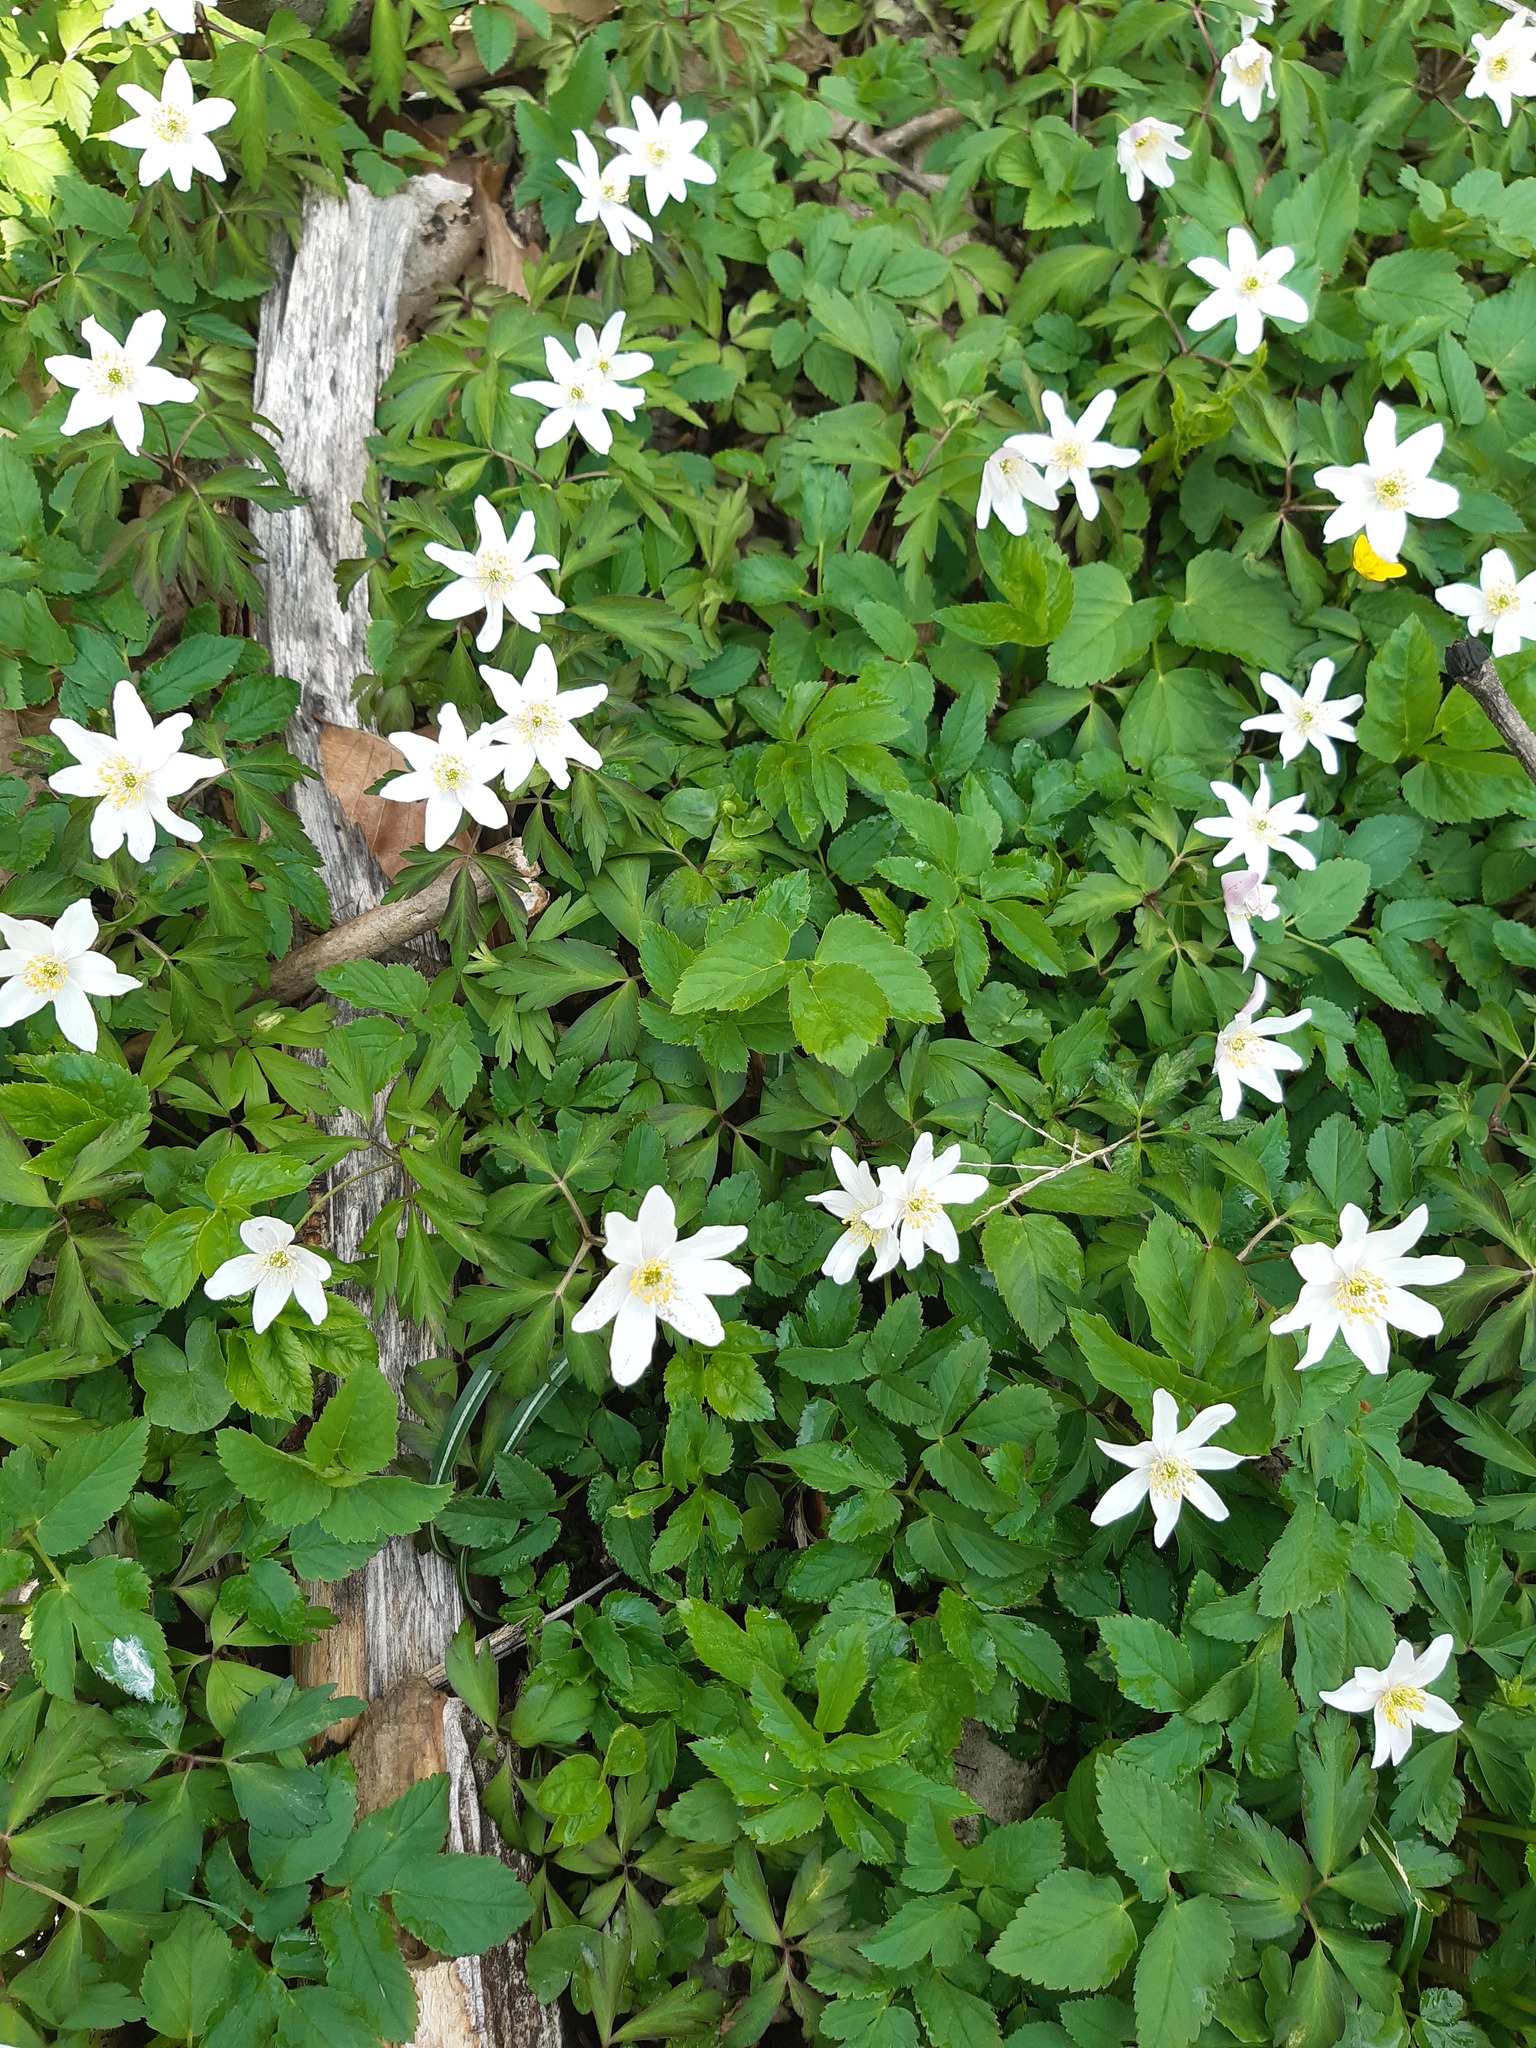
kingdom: Plantae
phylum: Tracheophyta
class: Magnoliopsida
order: Ranunculales
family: Ranunculaceae
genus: Anemone
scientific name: Anemone nemorosa
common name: Wood anemone
